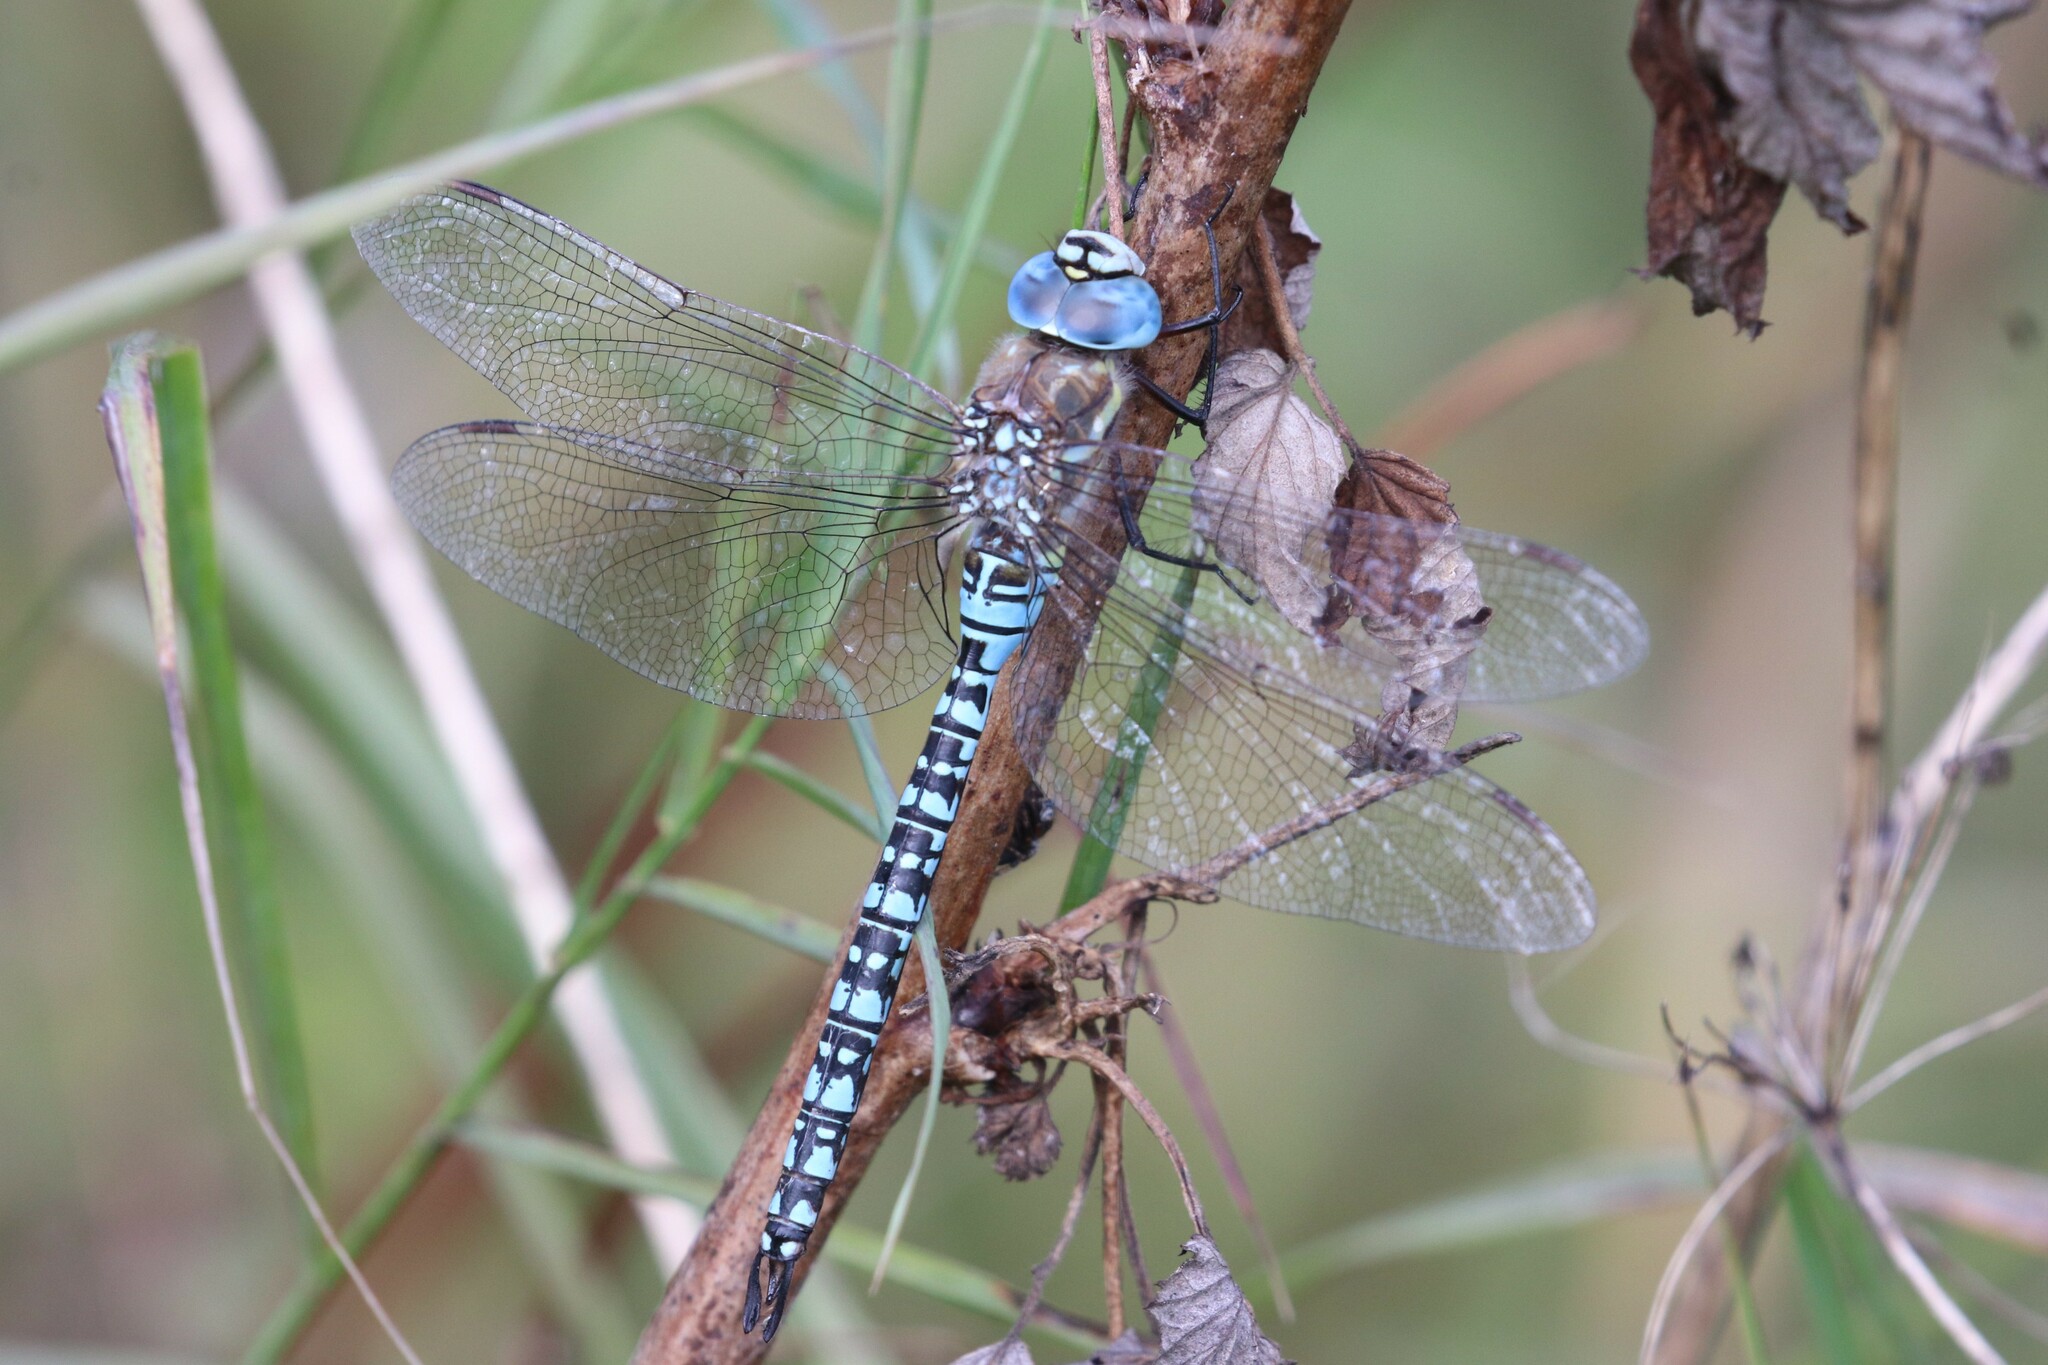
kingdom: Animalia
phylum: Arthropoda
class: Insecta
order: Odonata
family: Aeshnidae
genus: Aeshna
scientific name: Aeshna soneharai
